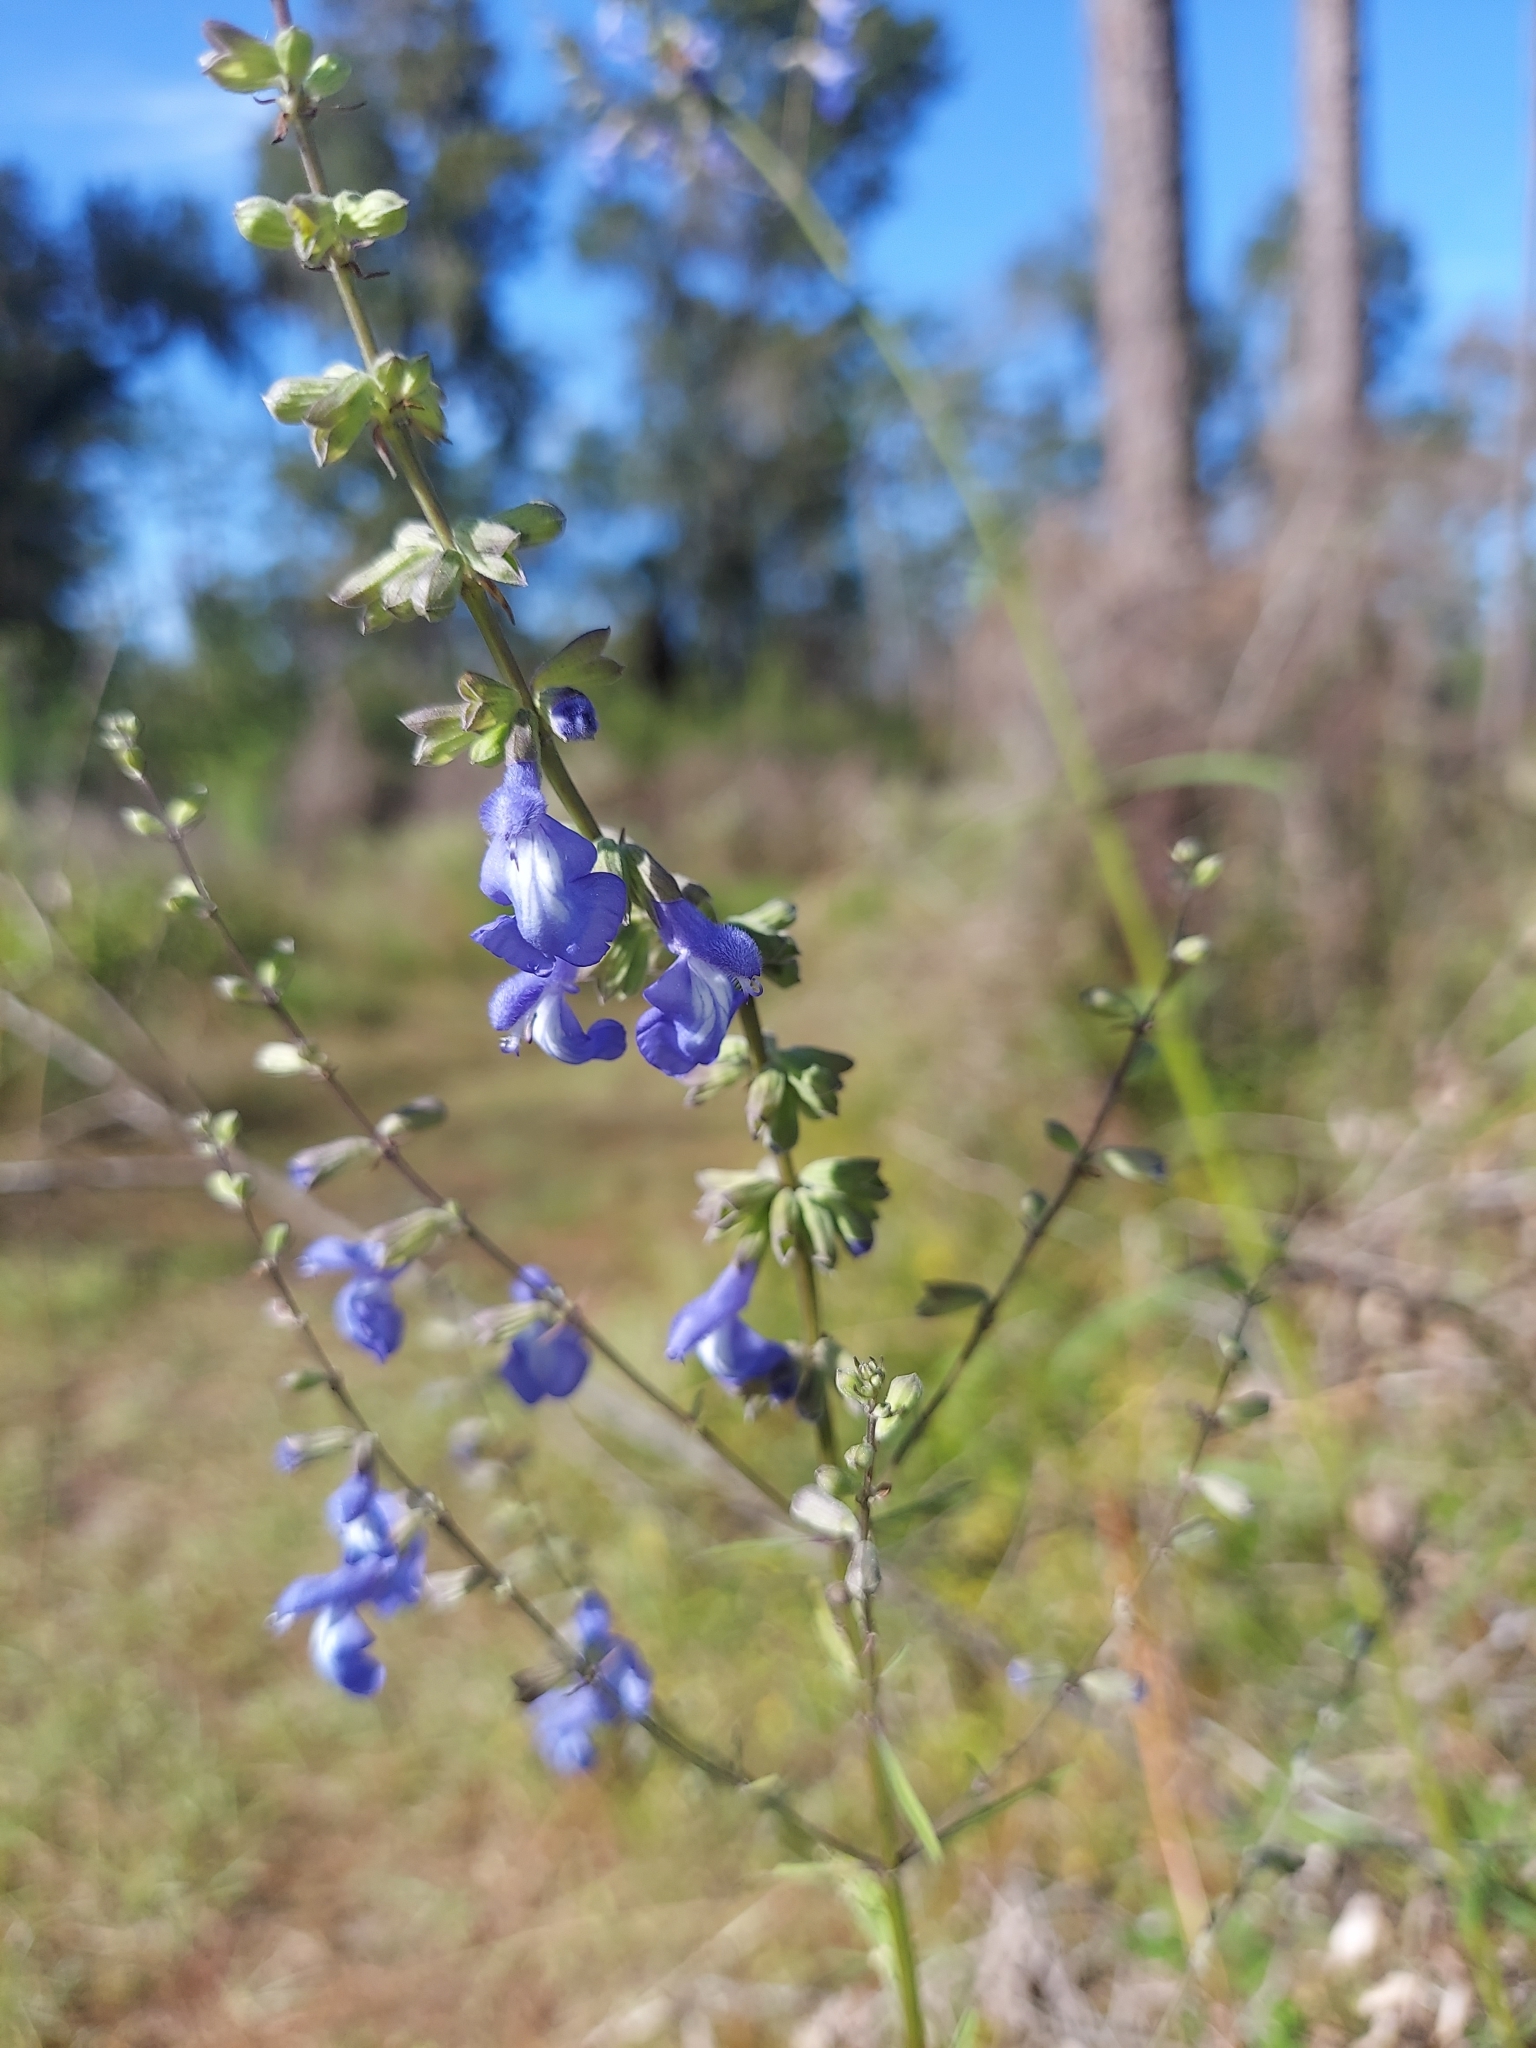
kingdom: Plantae
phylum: Tracheophyta
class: Magnoliopsida
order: Lamiales
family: Lamiaceae
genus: Salvia
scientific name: Salvia azurea
